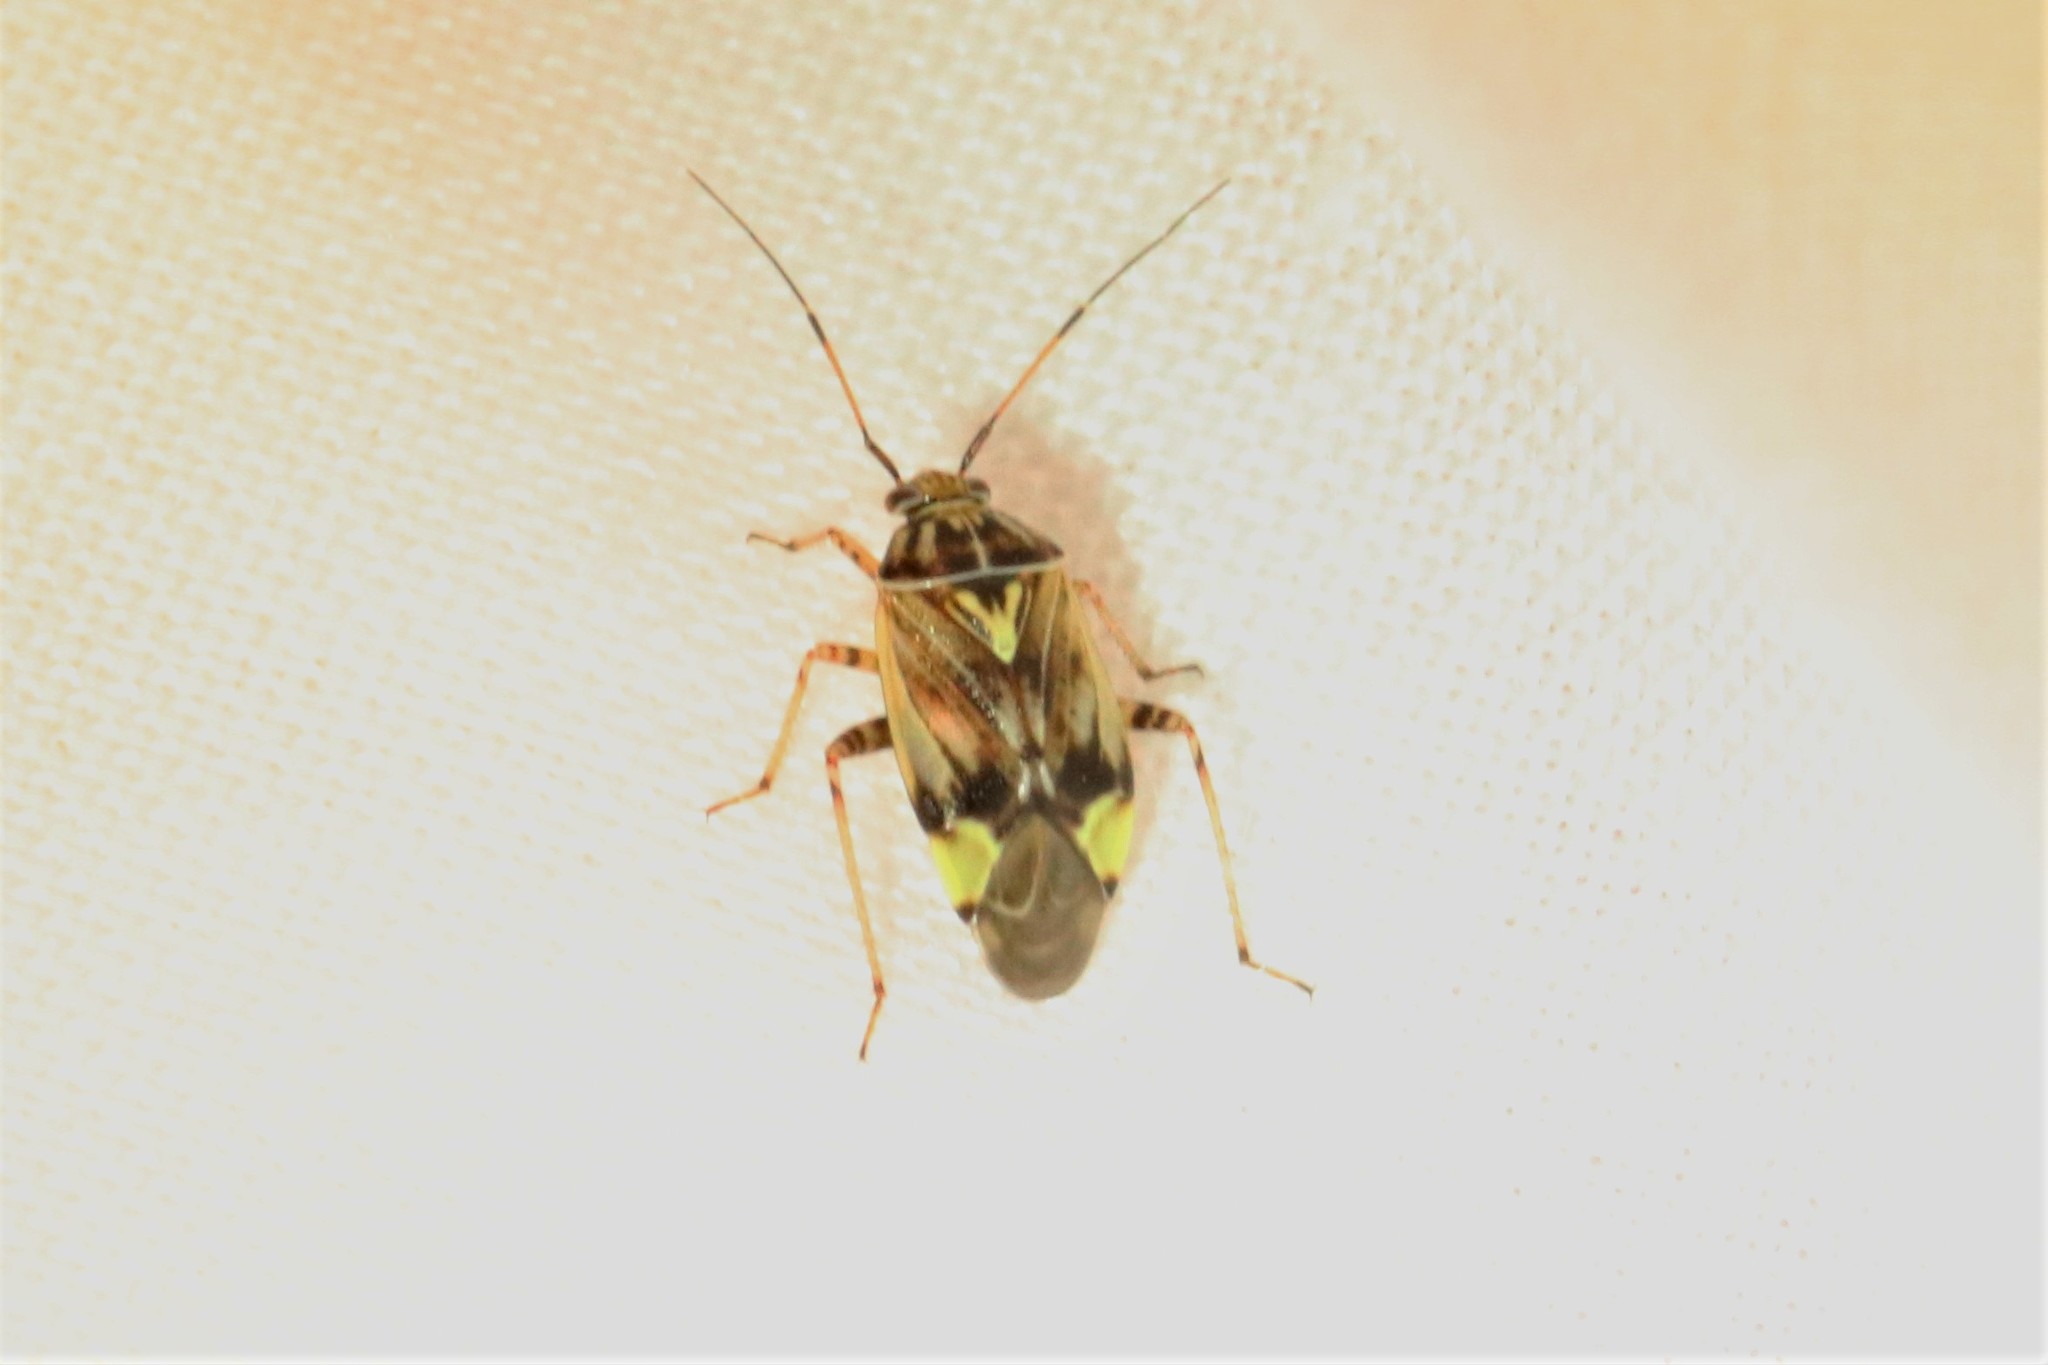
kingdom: Animalia
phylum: Arthropoda
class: Insecta
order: Hemiptera
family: Miridae
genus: Lygus
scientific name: Lygus lineolaris
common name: North american tarnished plant bug
